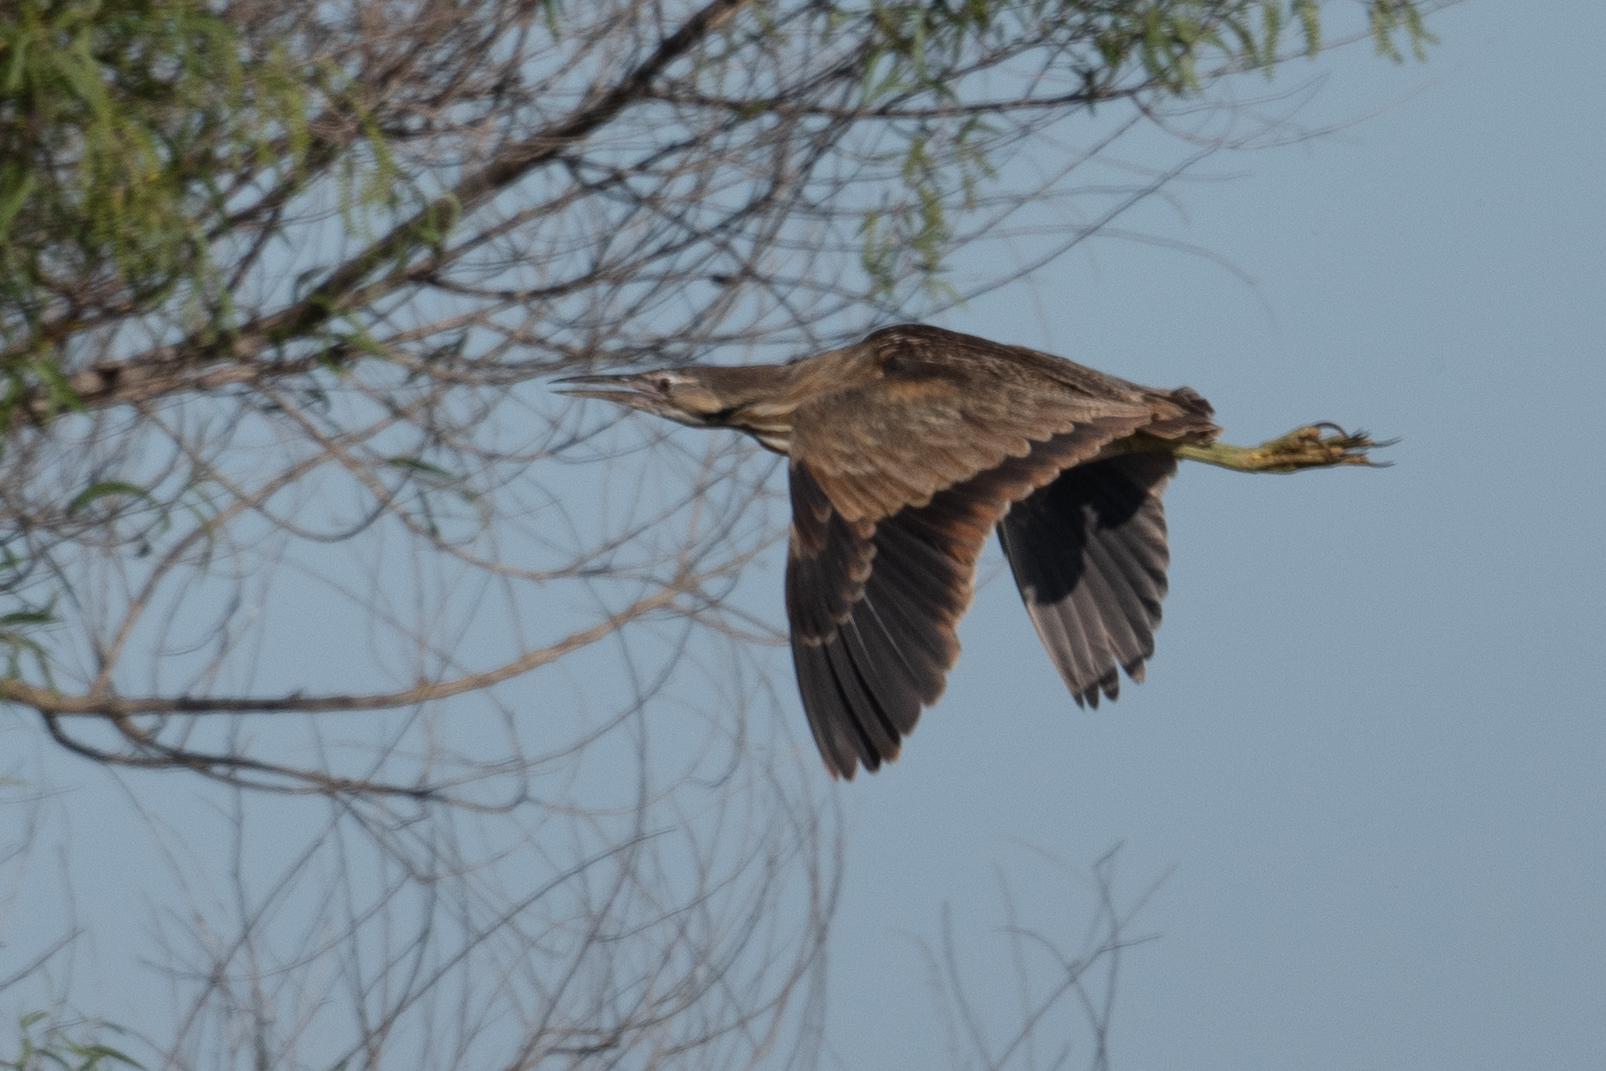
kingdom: Animalia
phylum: Chordata
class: Aves
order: Pelecaniformes
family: Ardeidae
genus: Botaurus
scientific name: Botaurus lentiginosus
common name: American bittern
